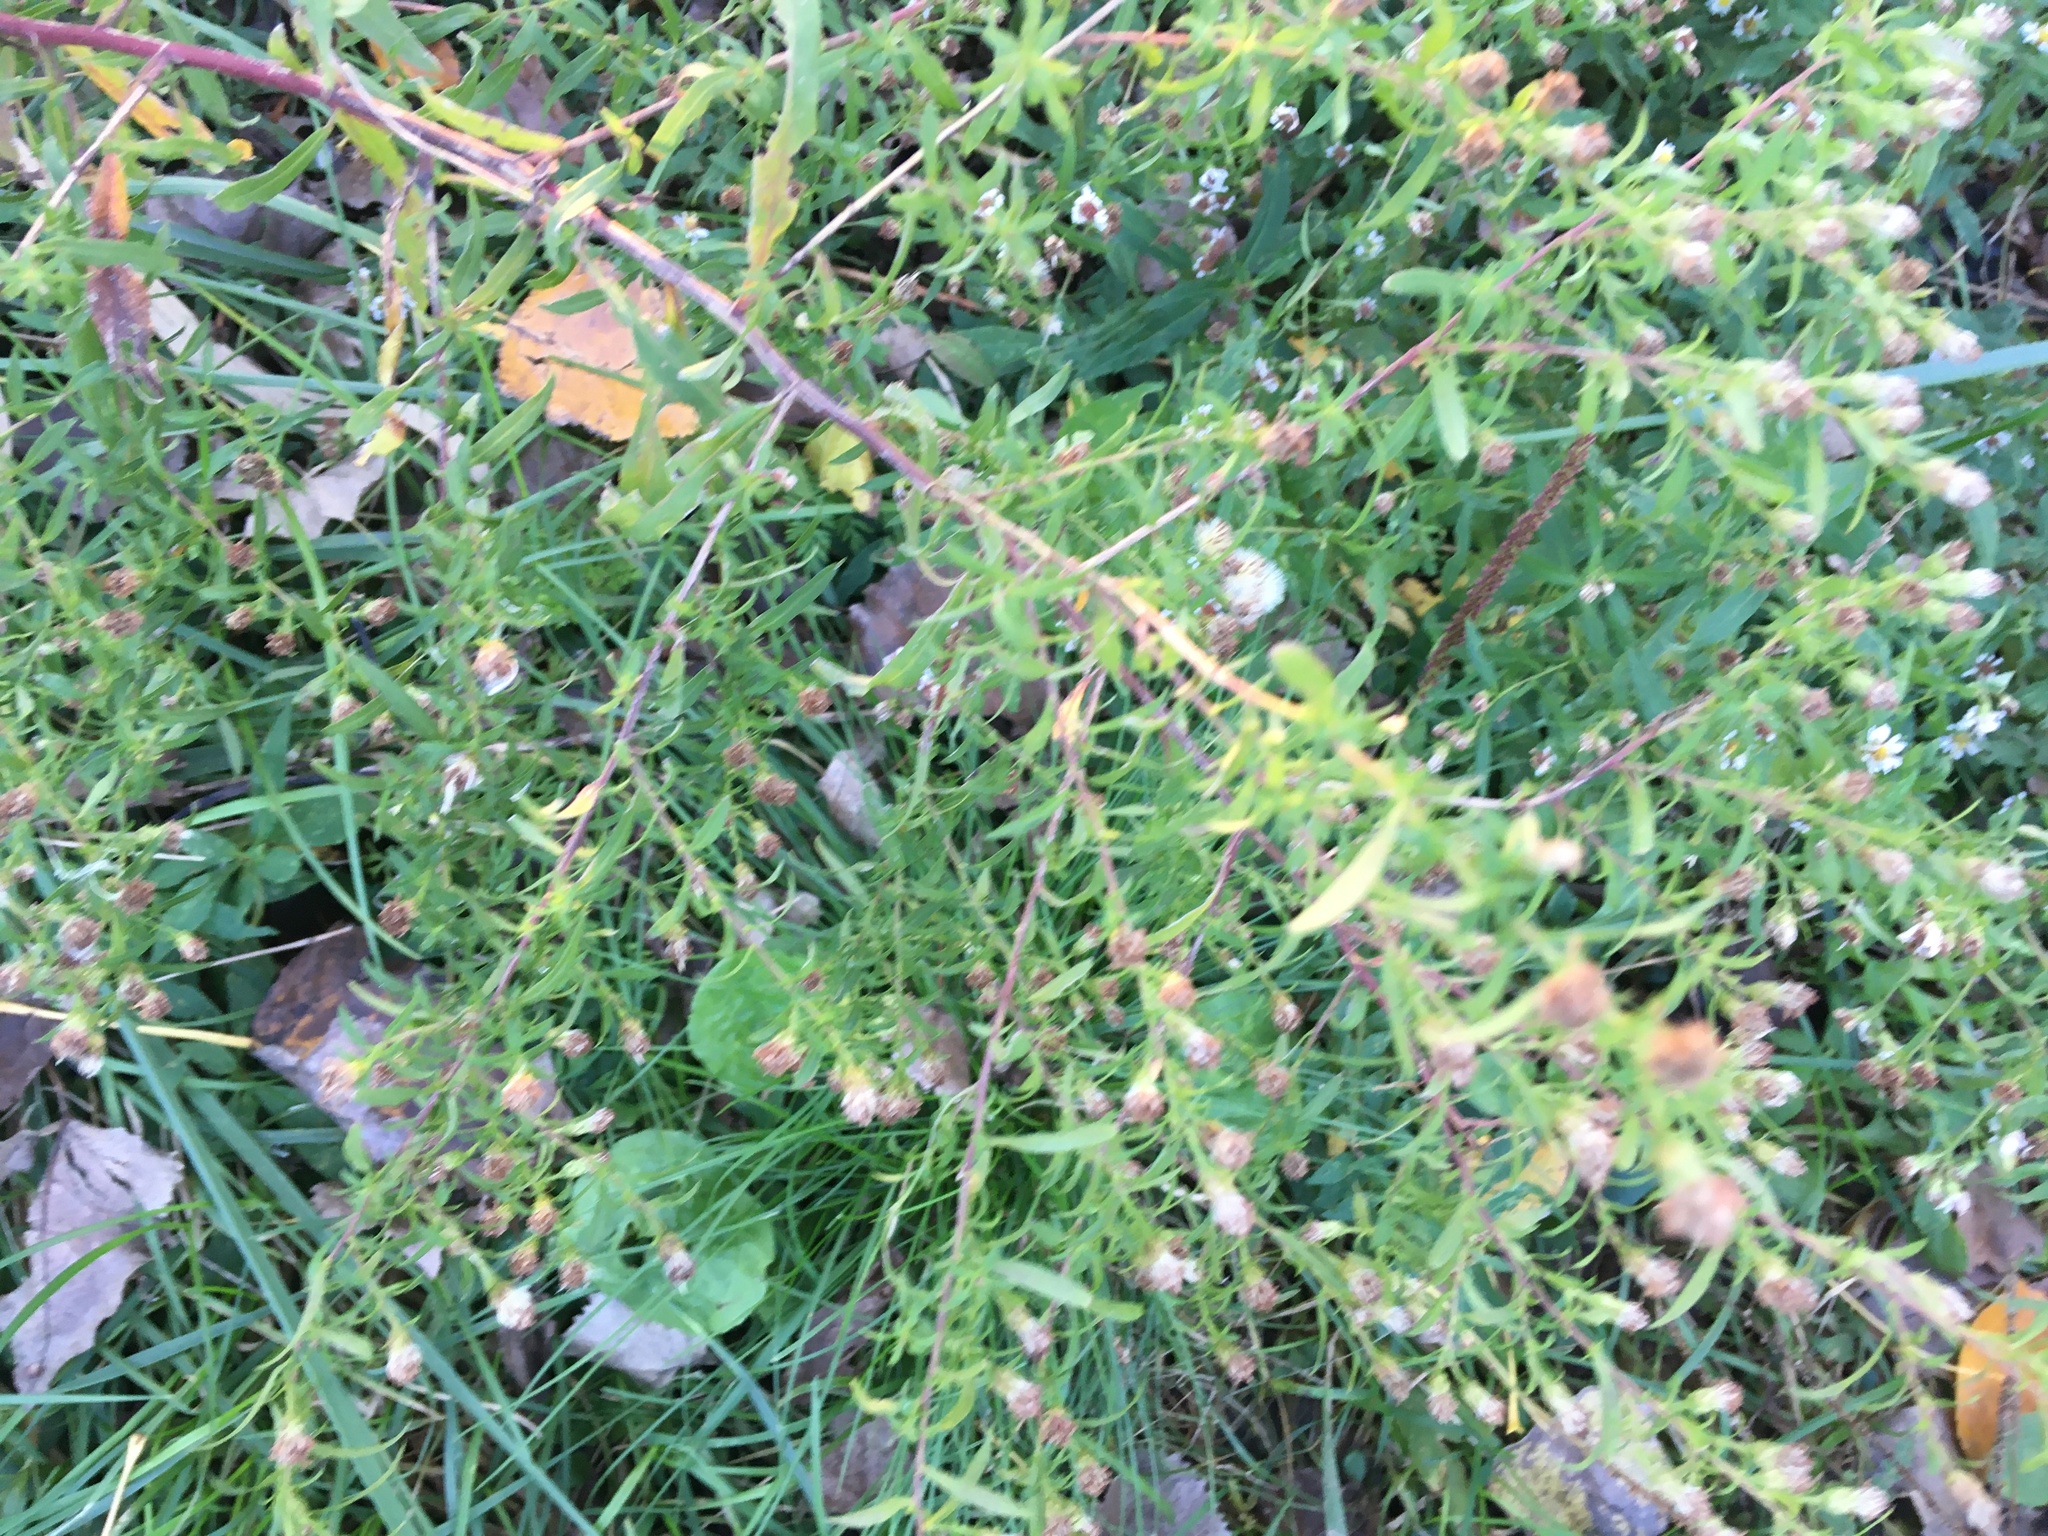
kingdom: Plantae
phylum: Tracheophyta
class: Magnoliopsida
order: Asterales
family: Asteraceae
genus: Artemisia
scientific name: Artemisia vulgaris
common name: Mugwort
